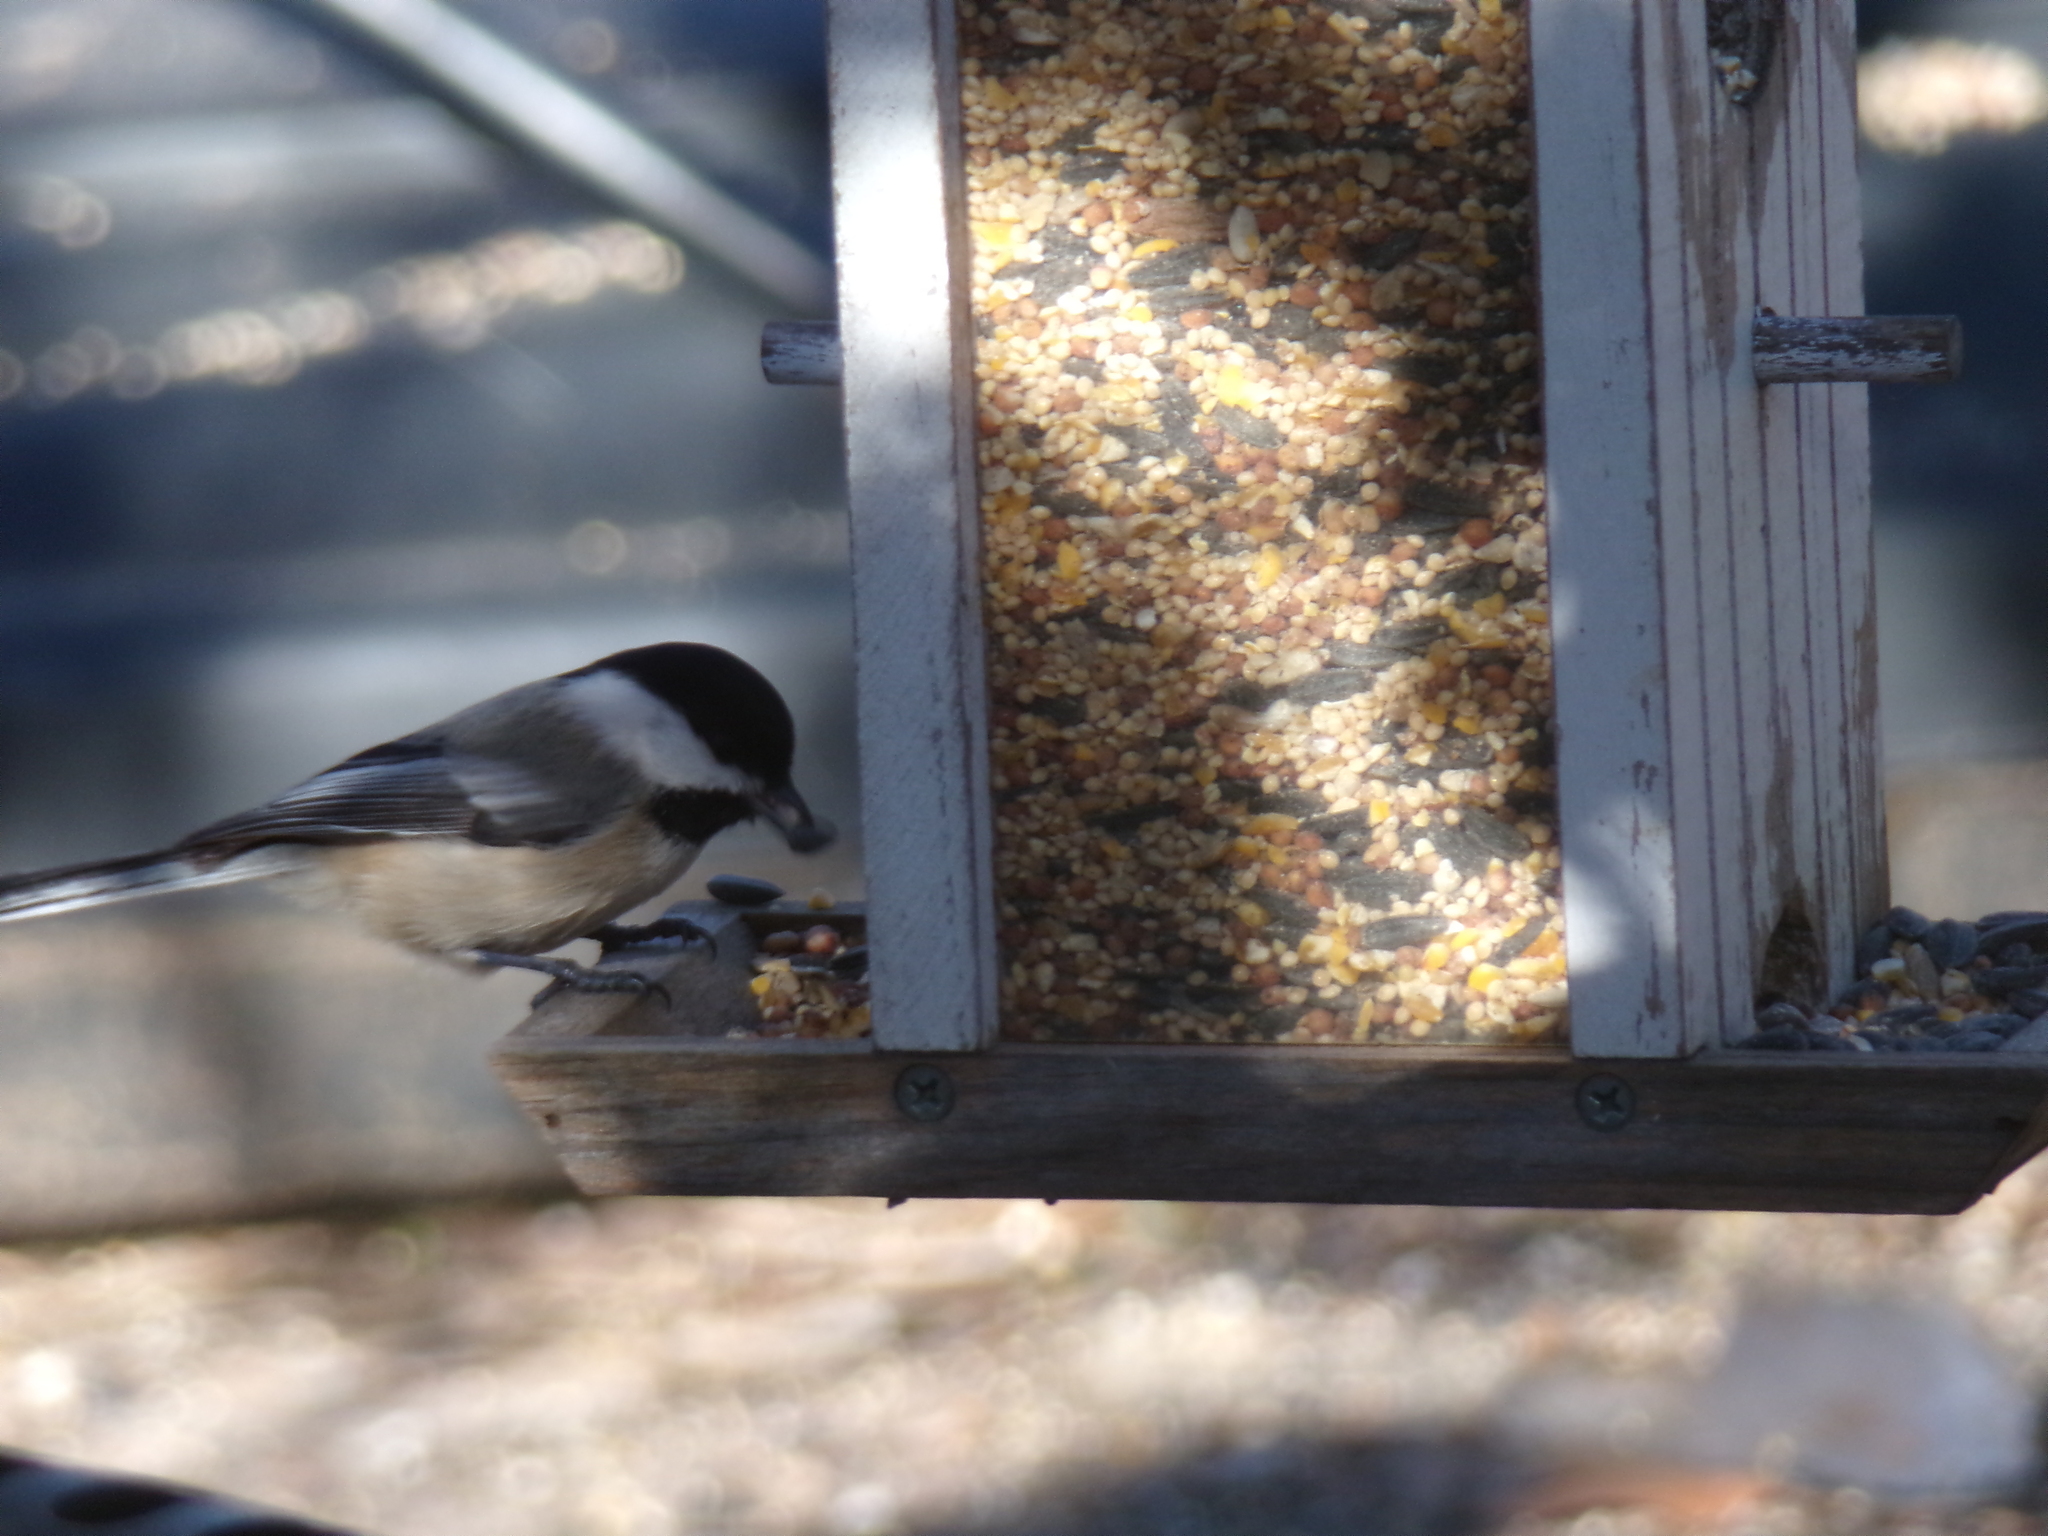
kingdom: Animalia
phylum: Chordata
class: Aves
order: Passeriformes
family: Paridae
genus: Poecile
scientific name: Poecile atricapillus
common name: Black-capped chickadee
